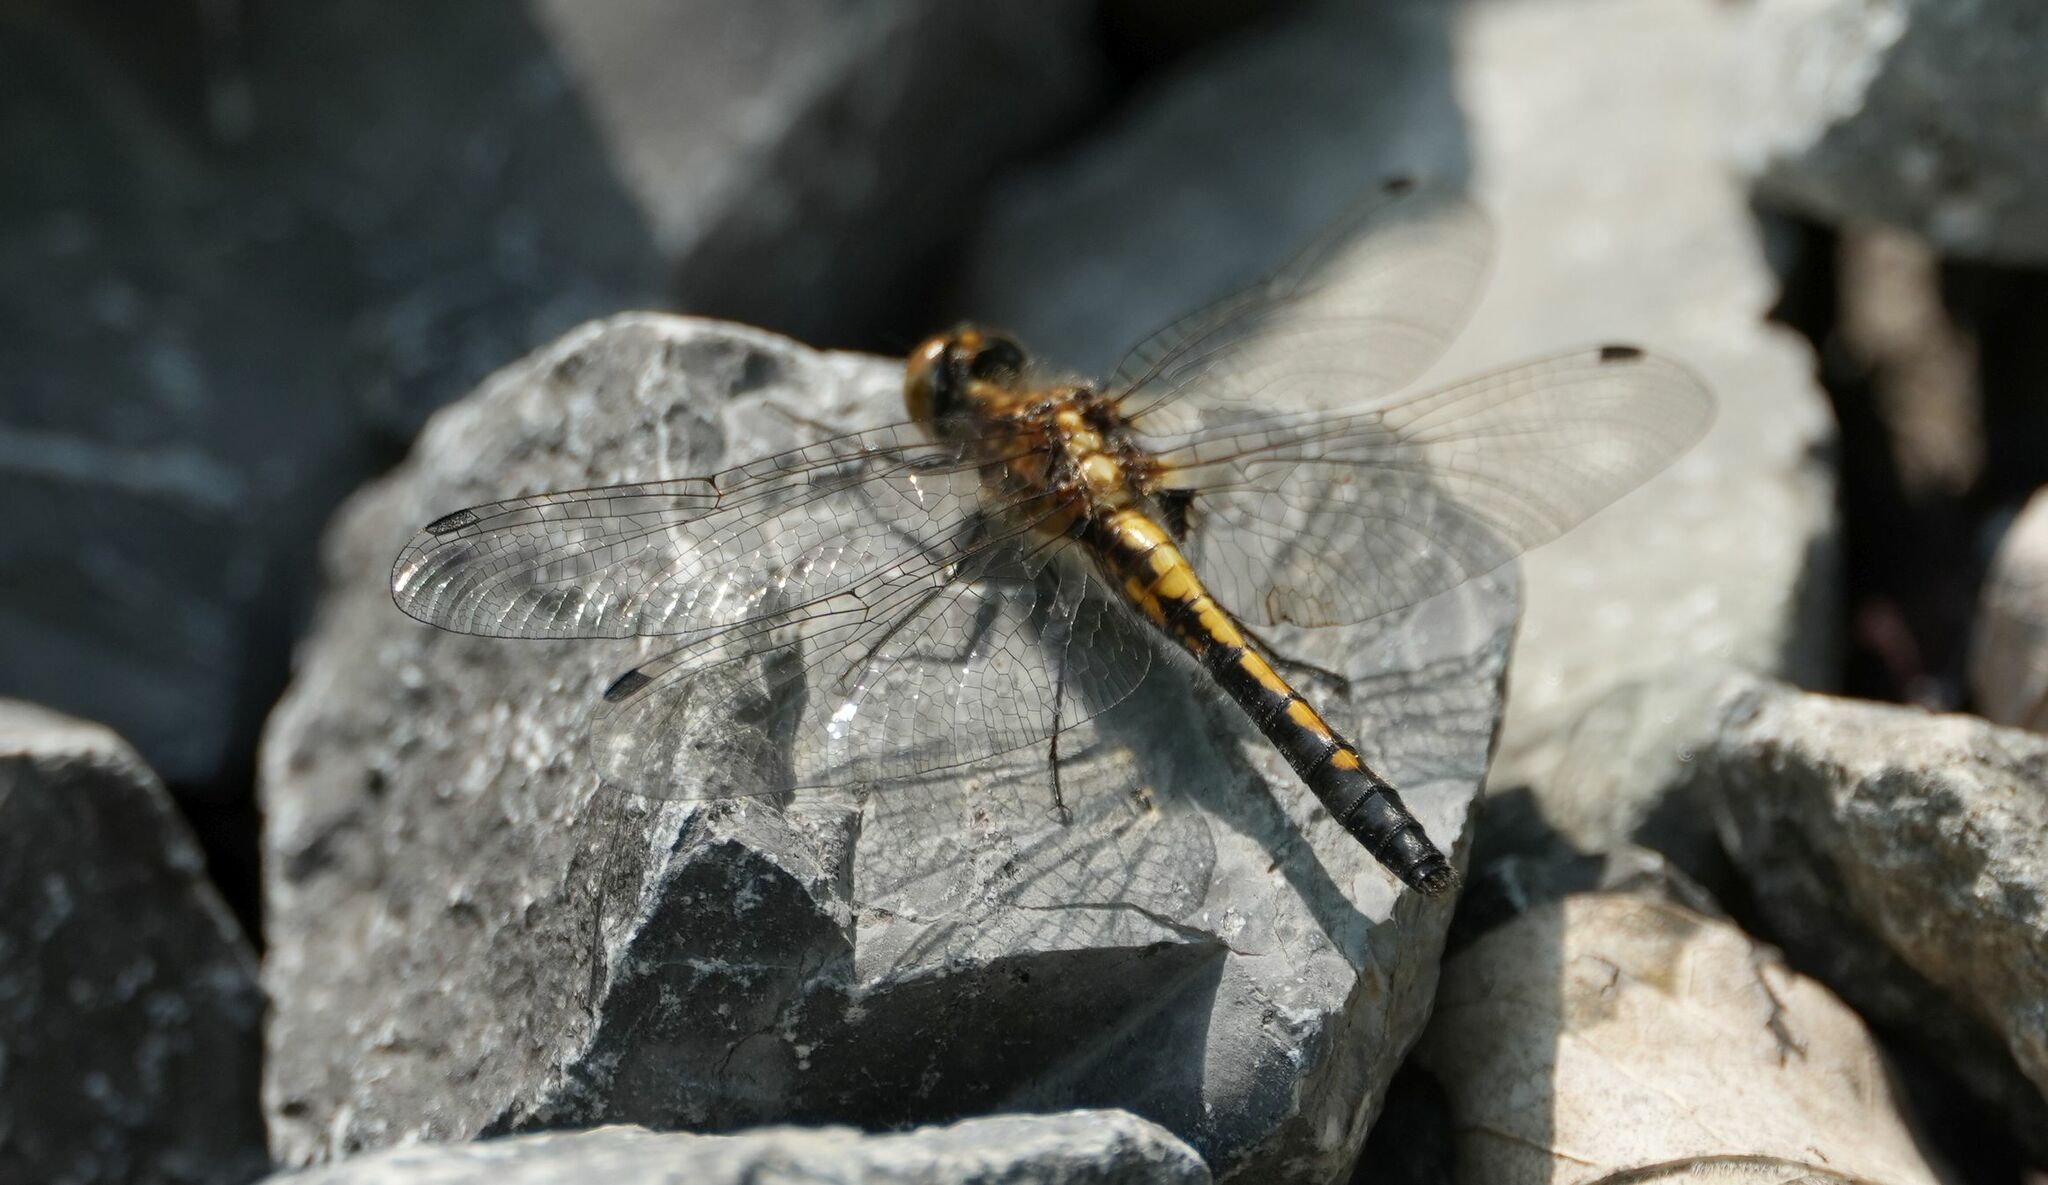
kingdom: Animalia
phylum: Arthropoda
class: Insecta
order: Odonata
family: Libellulidae
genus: Leucorrhinia
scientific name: Leucorrhinia intacta
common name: Dot-tailed whiteface
